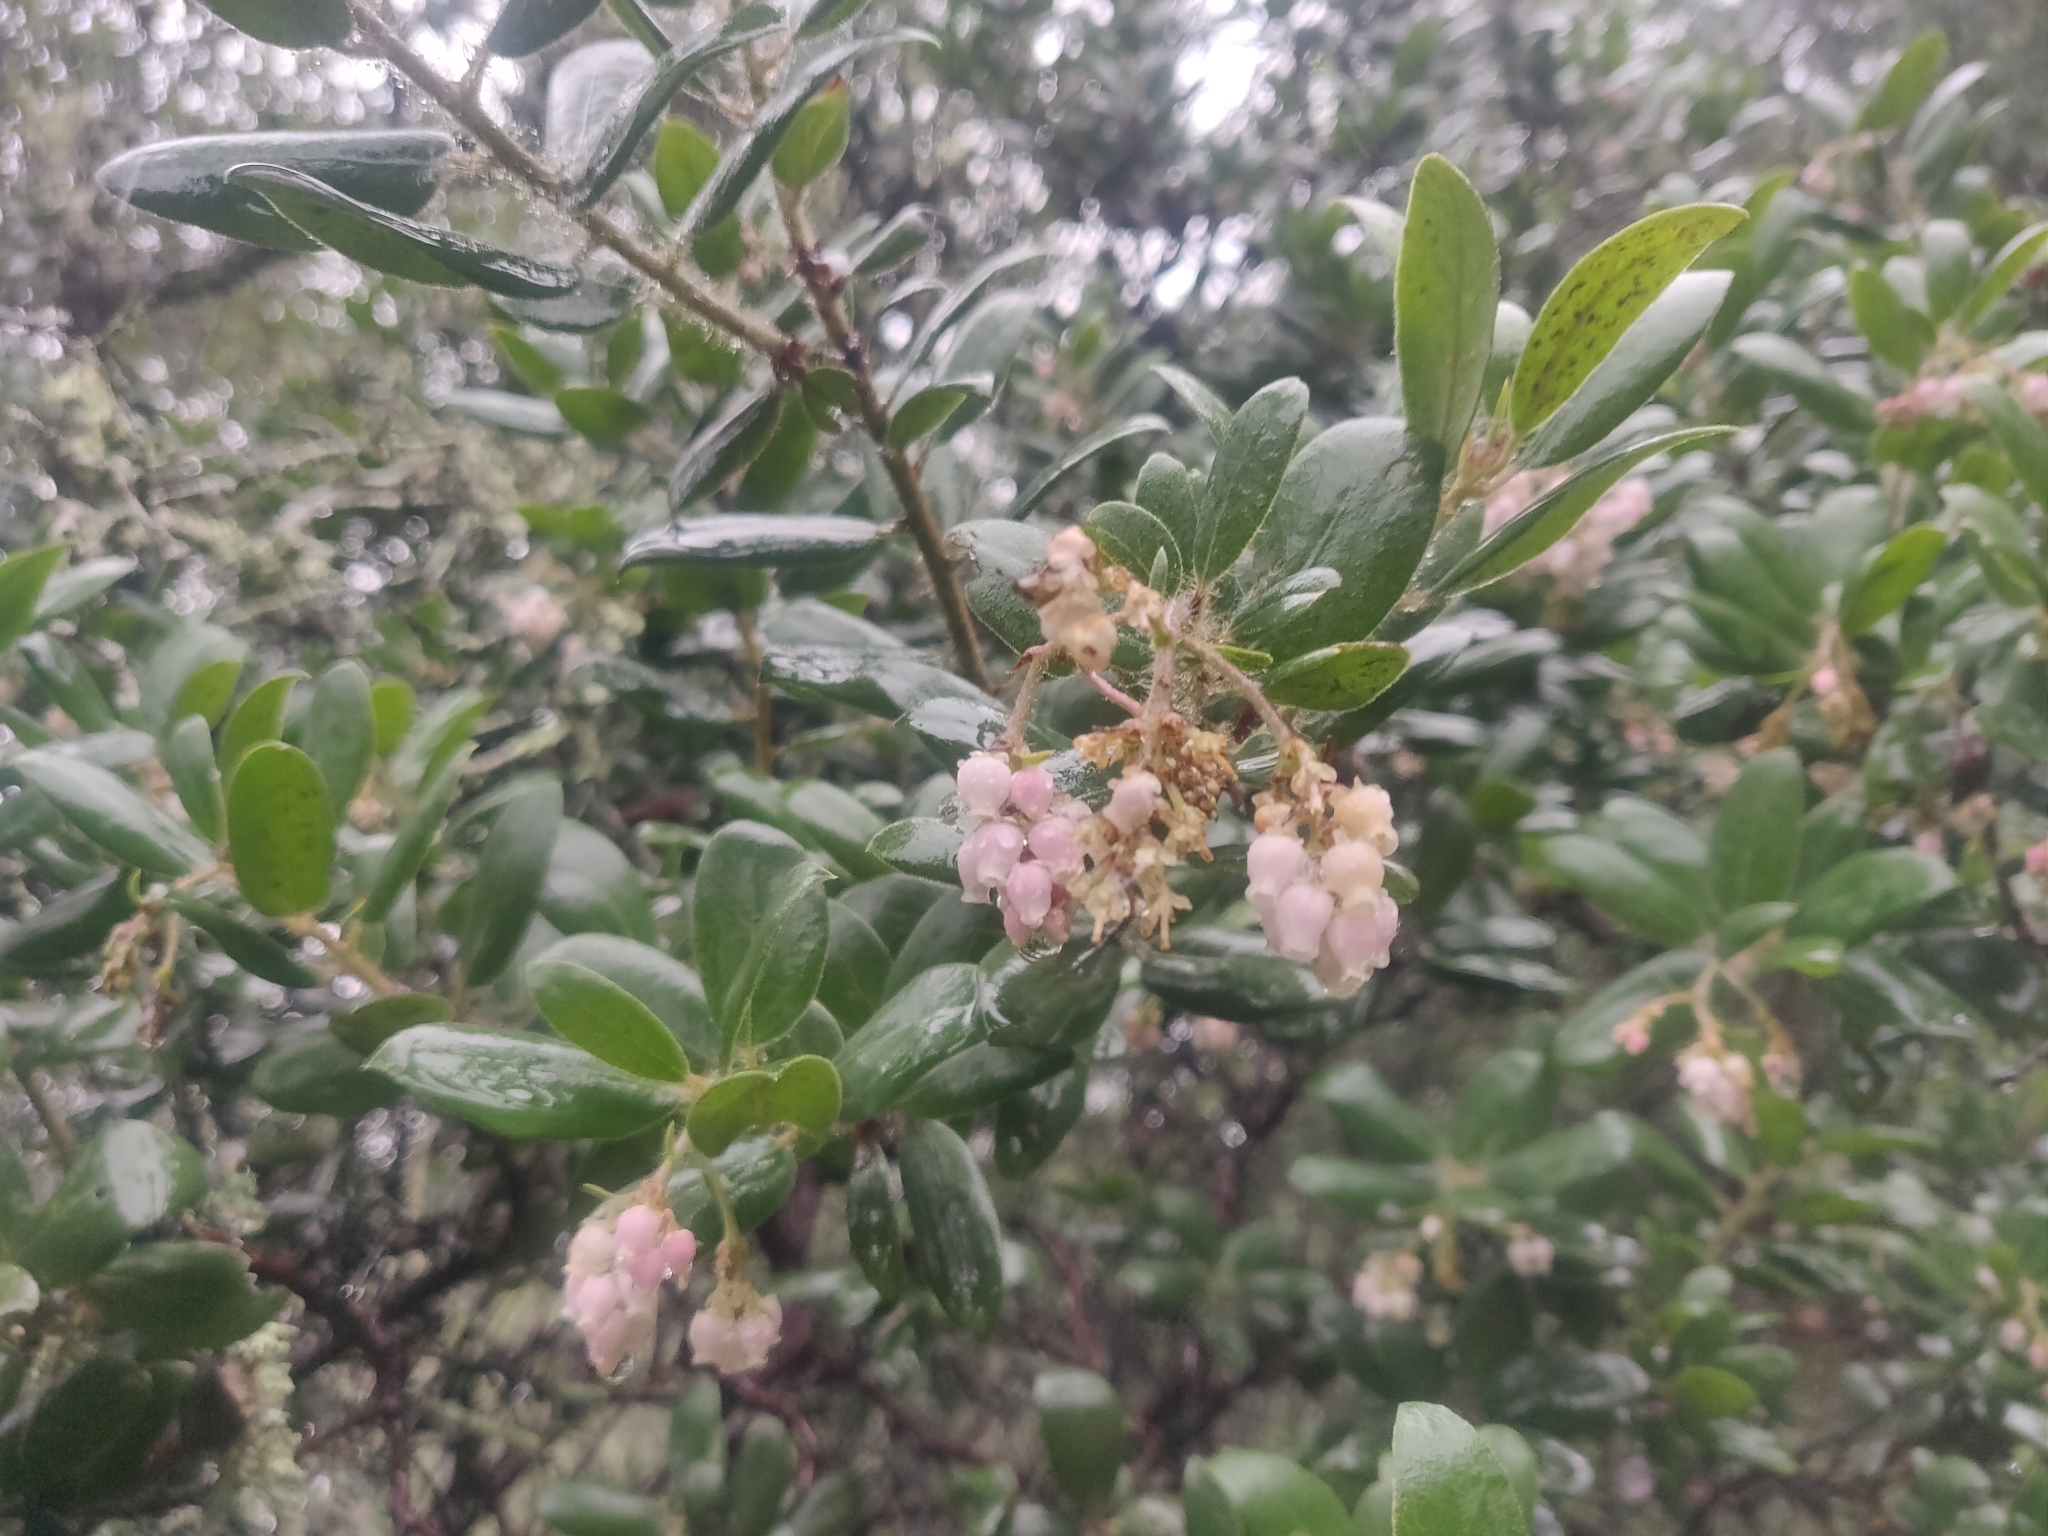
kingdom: Plantae
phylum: Tracheophyta
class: Magnoliopsida
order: Ericales
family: Ericaceae
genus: Arctostaphylos
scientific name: Arctostaphylos crustacea
